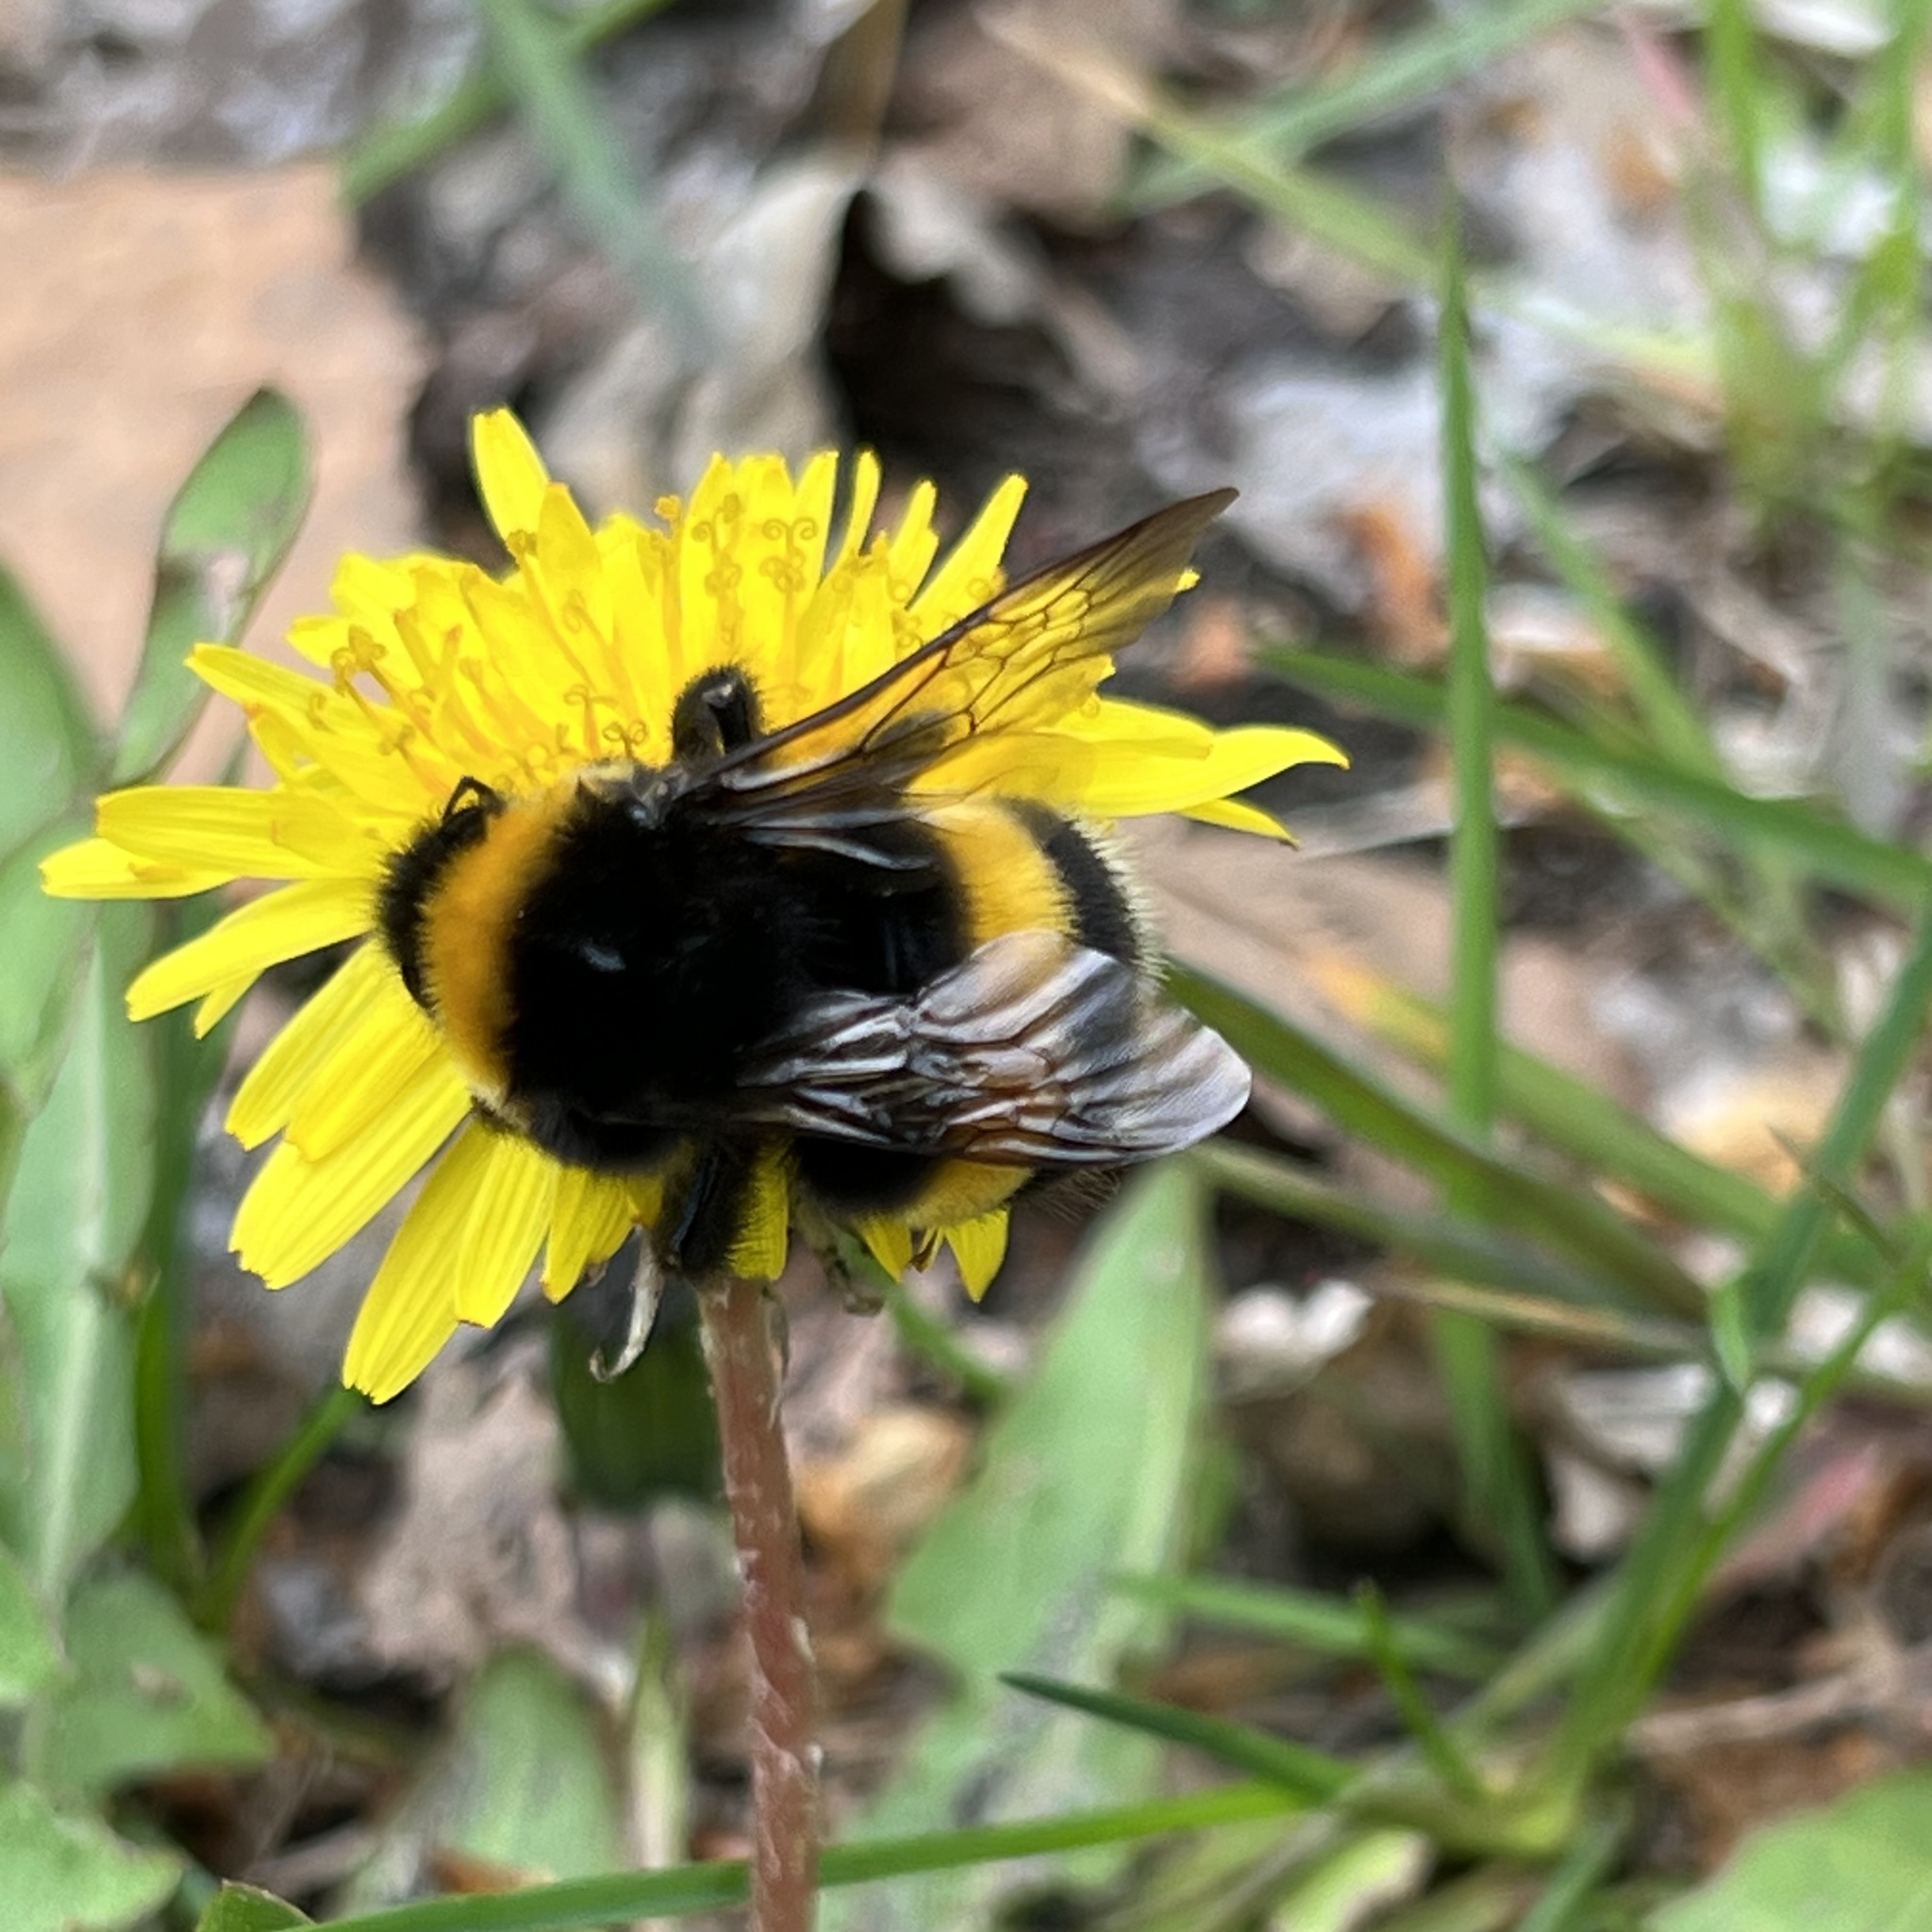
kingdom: Animalia
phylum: Arthropoda
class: Insecta
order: Hymenoptera
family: Apidae
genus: Bombus
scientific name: Bombus terrestris
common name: Buff-tailed bumblebee
